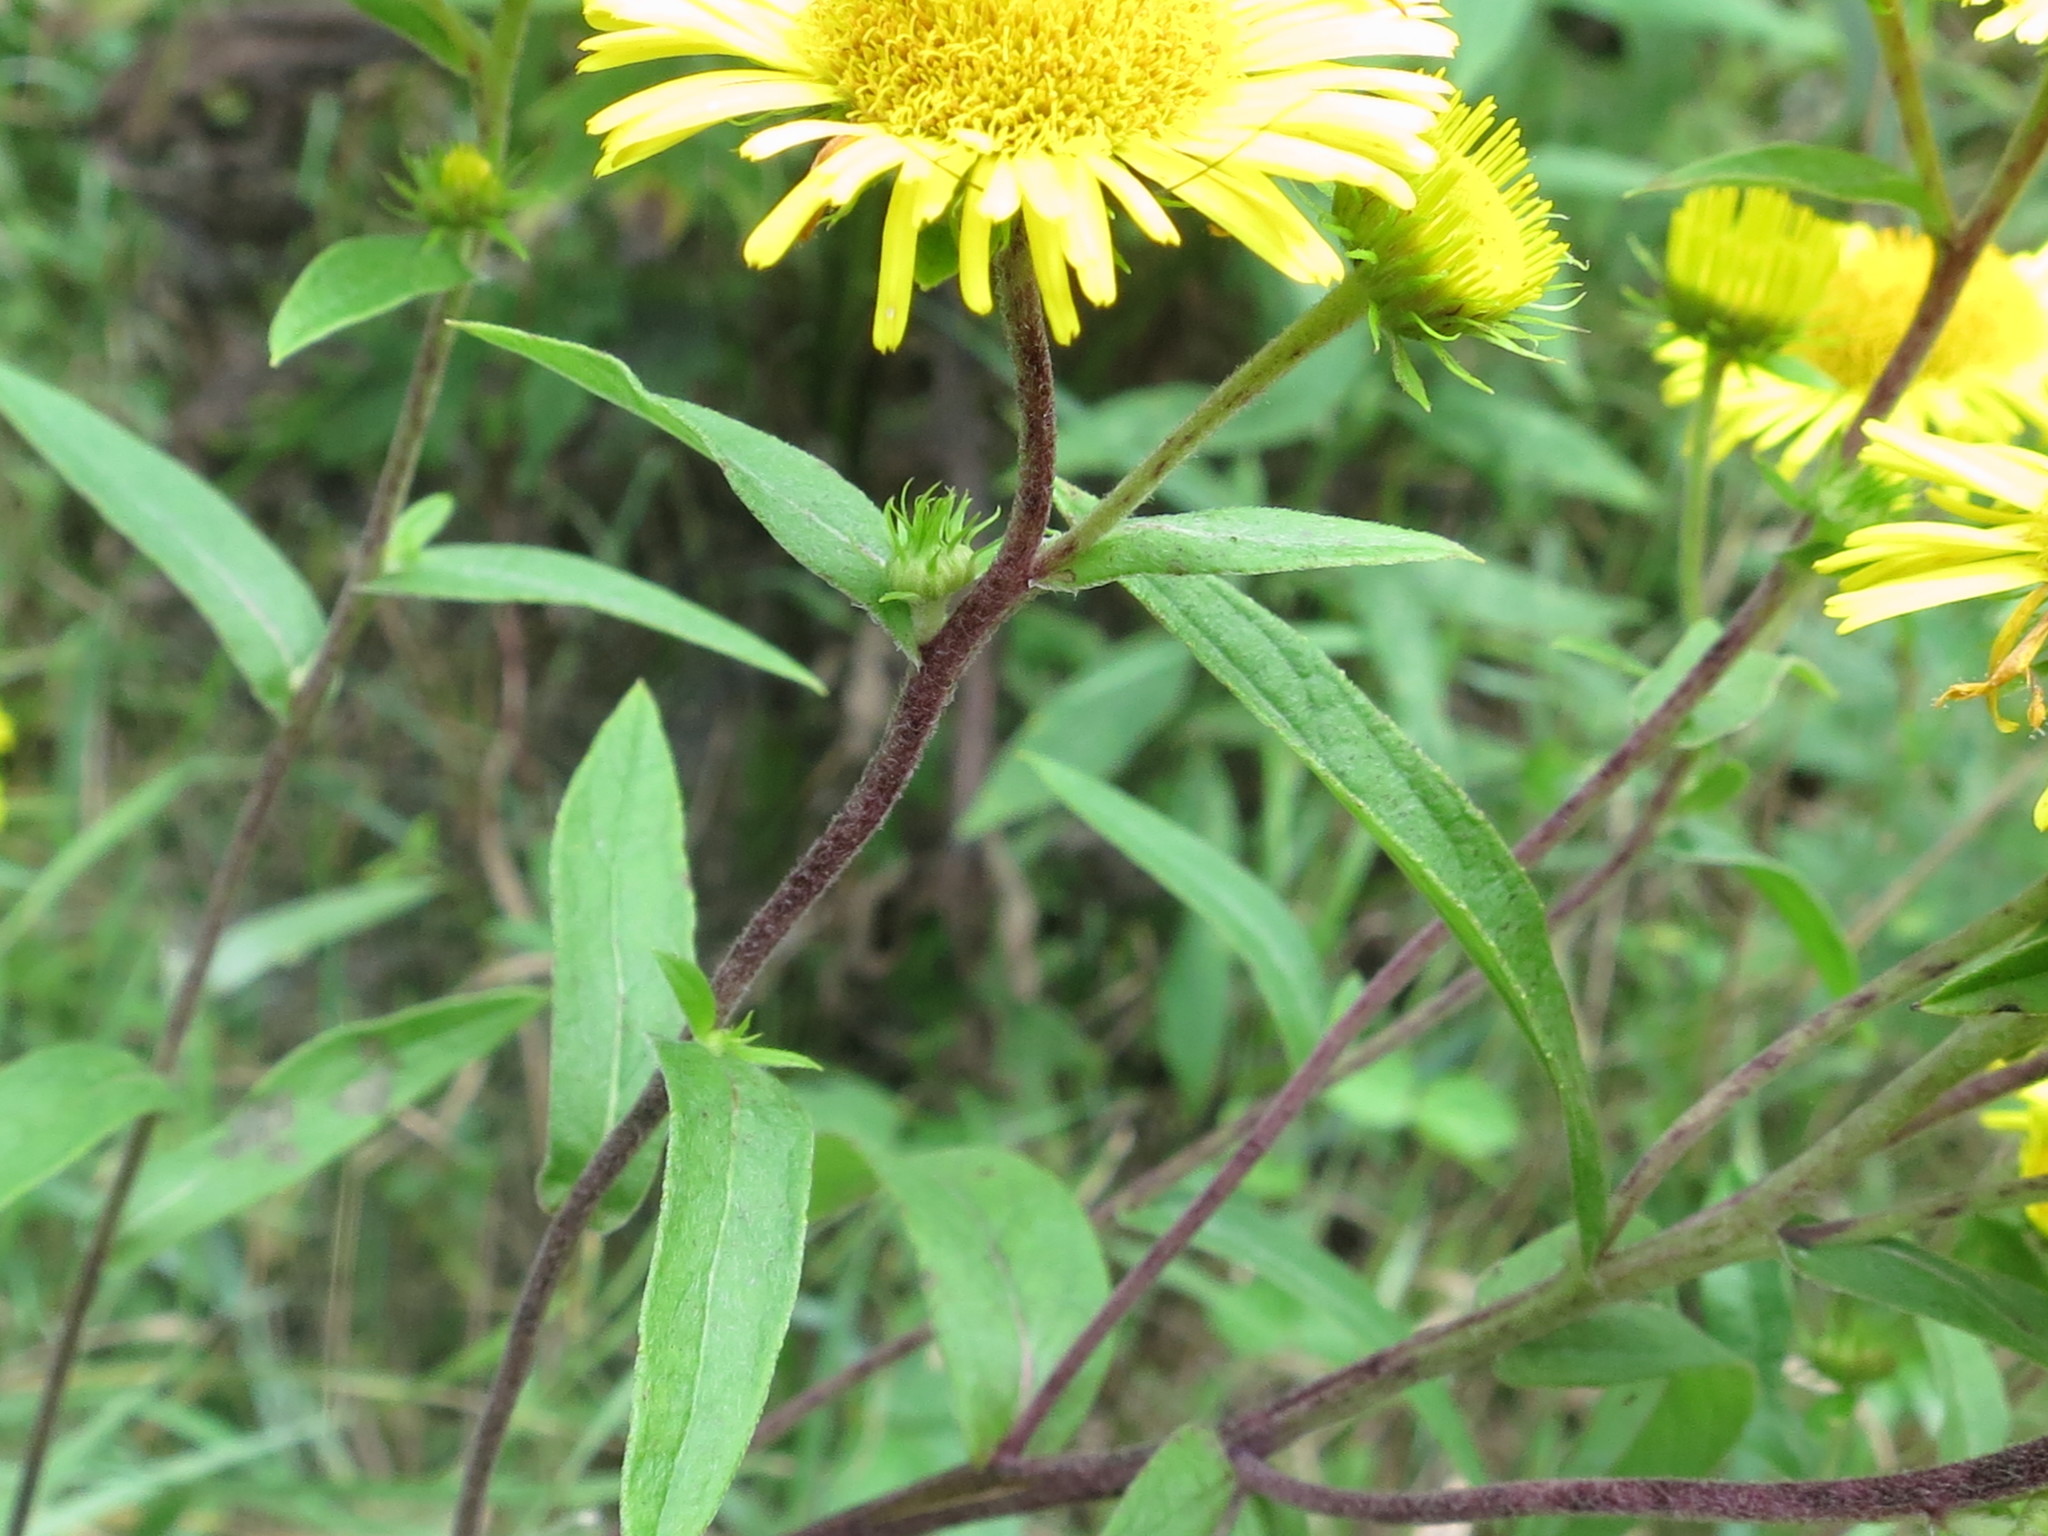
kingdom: Plantae
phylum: Tracheophyta
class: Magnoliopsida
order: Asterales
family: Asteraceae
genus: Inula
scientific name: Inula japonica
